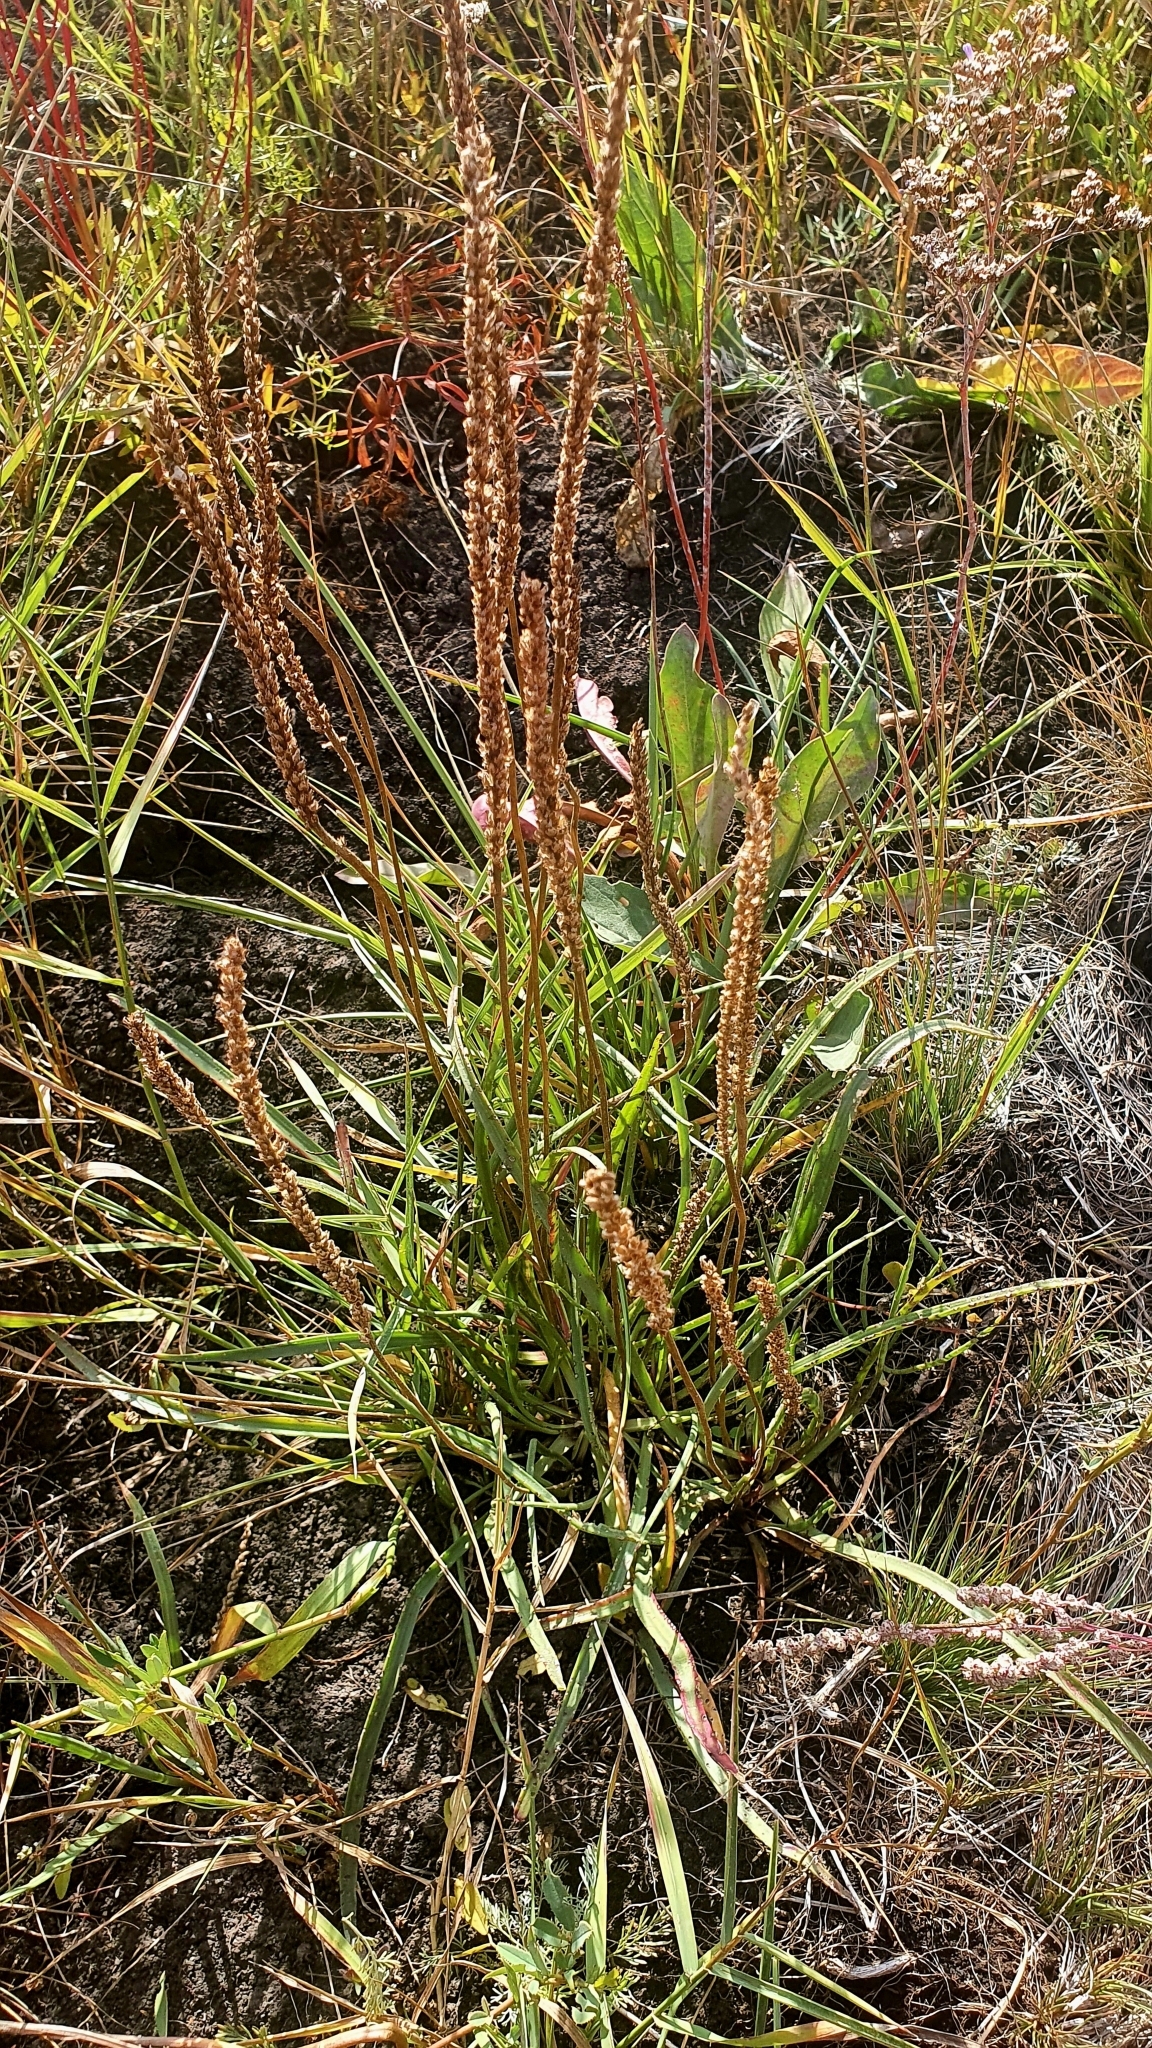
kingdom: Plantae
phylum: Tracheophyta
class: Magnoliopsida
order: Lamiales
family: Plantaginaceae
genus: Plantago
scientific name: Plantago salsa
